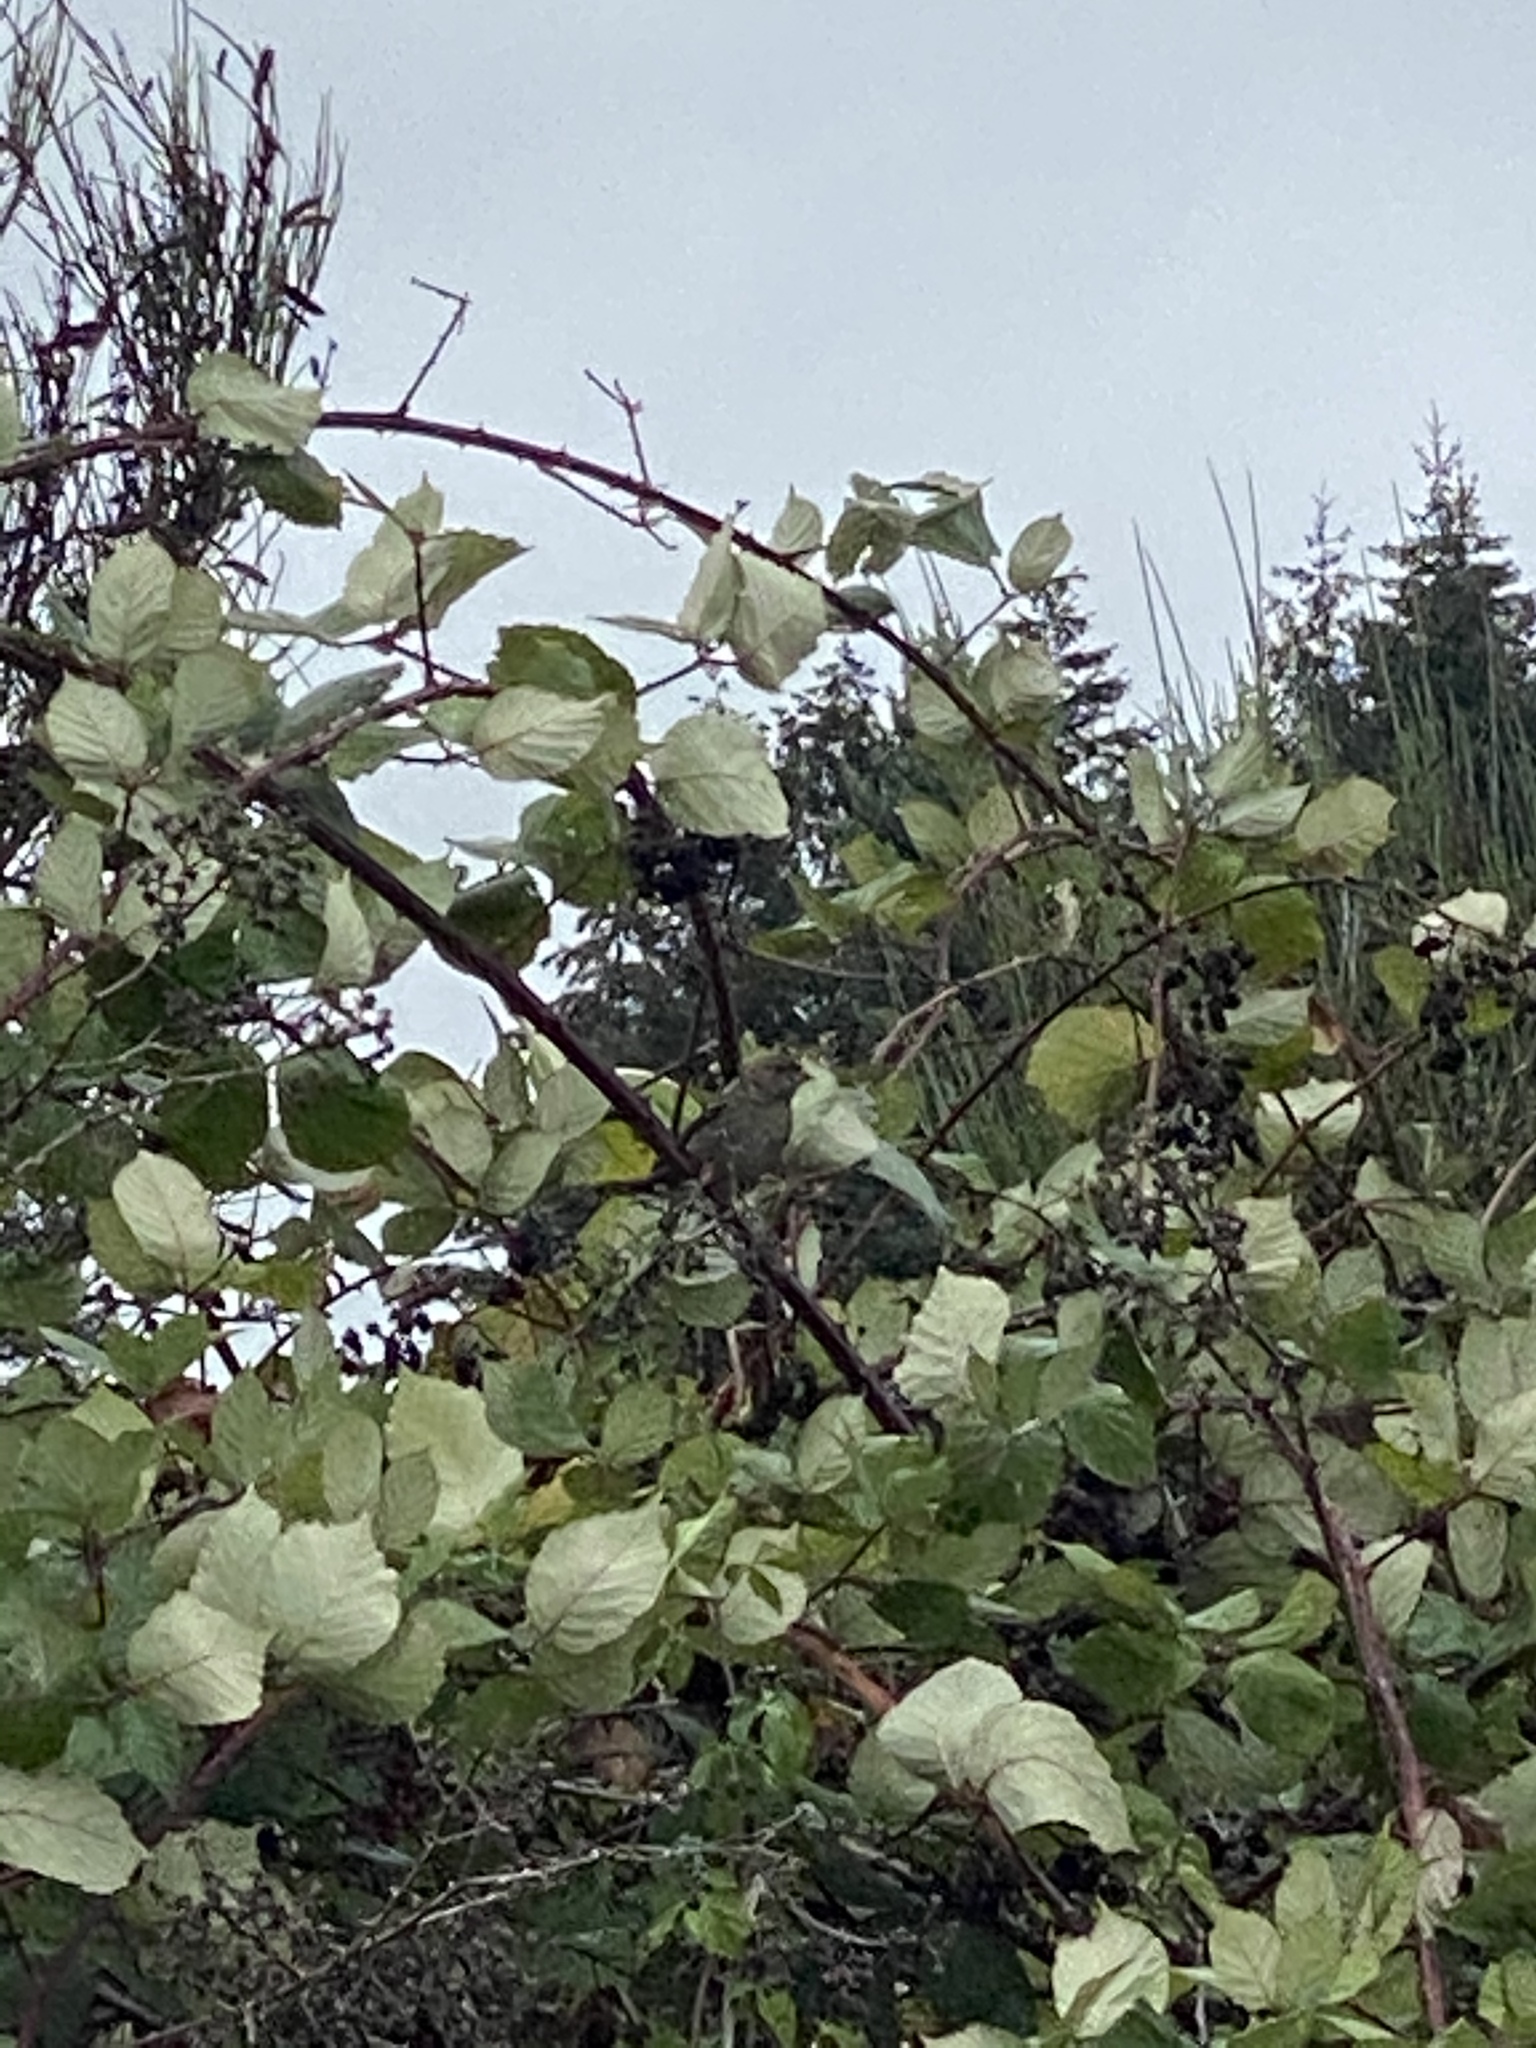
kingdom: Animalia
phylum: Chordata
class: Aves
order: Passeriformes
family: Passerellidae
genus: Zonotrichia
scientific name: Zonotrichia atricapilla
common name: Golden-crowned sparrow
